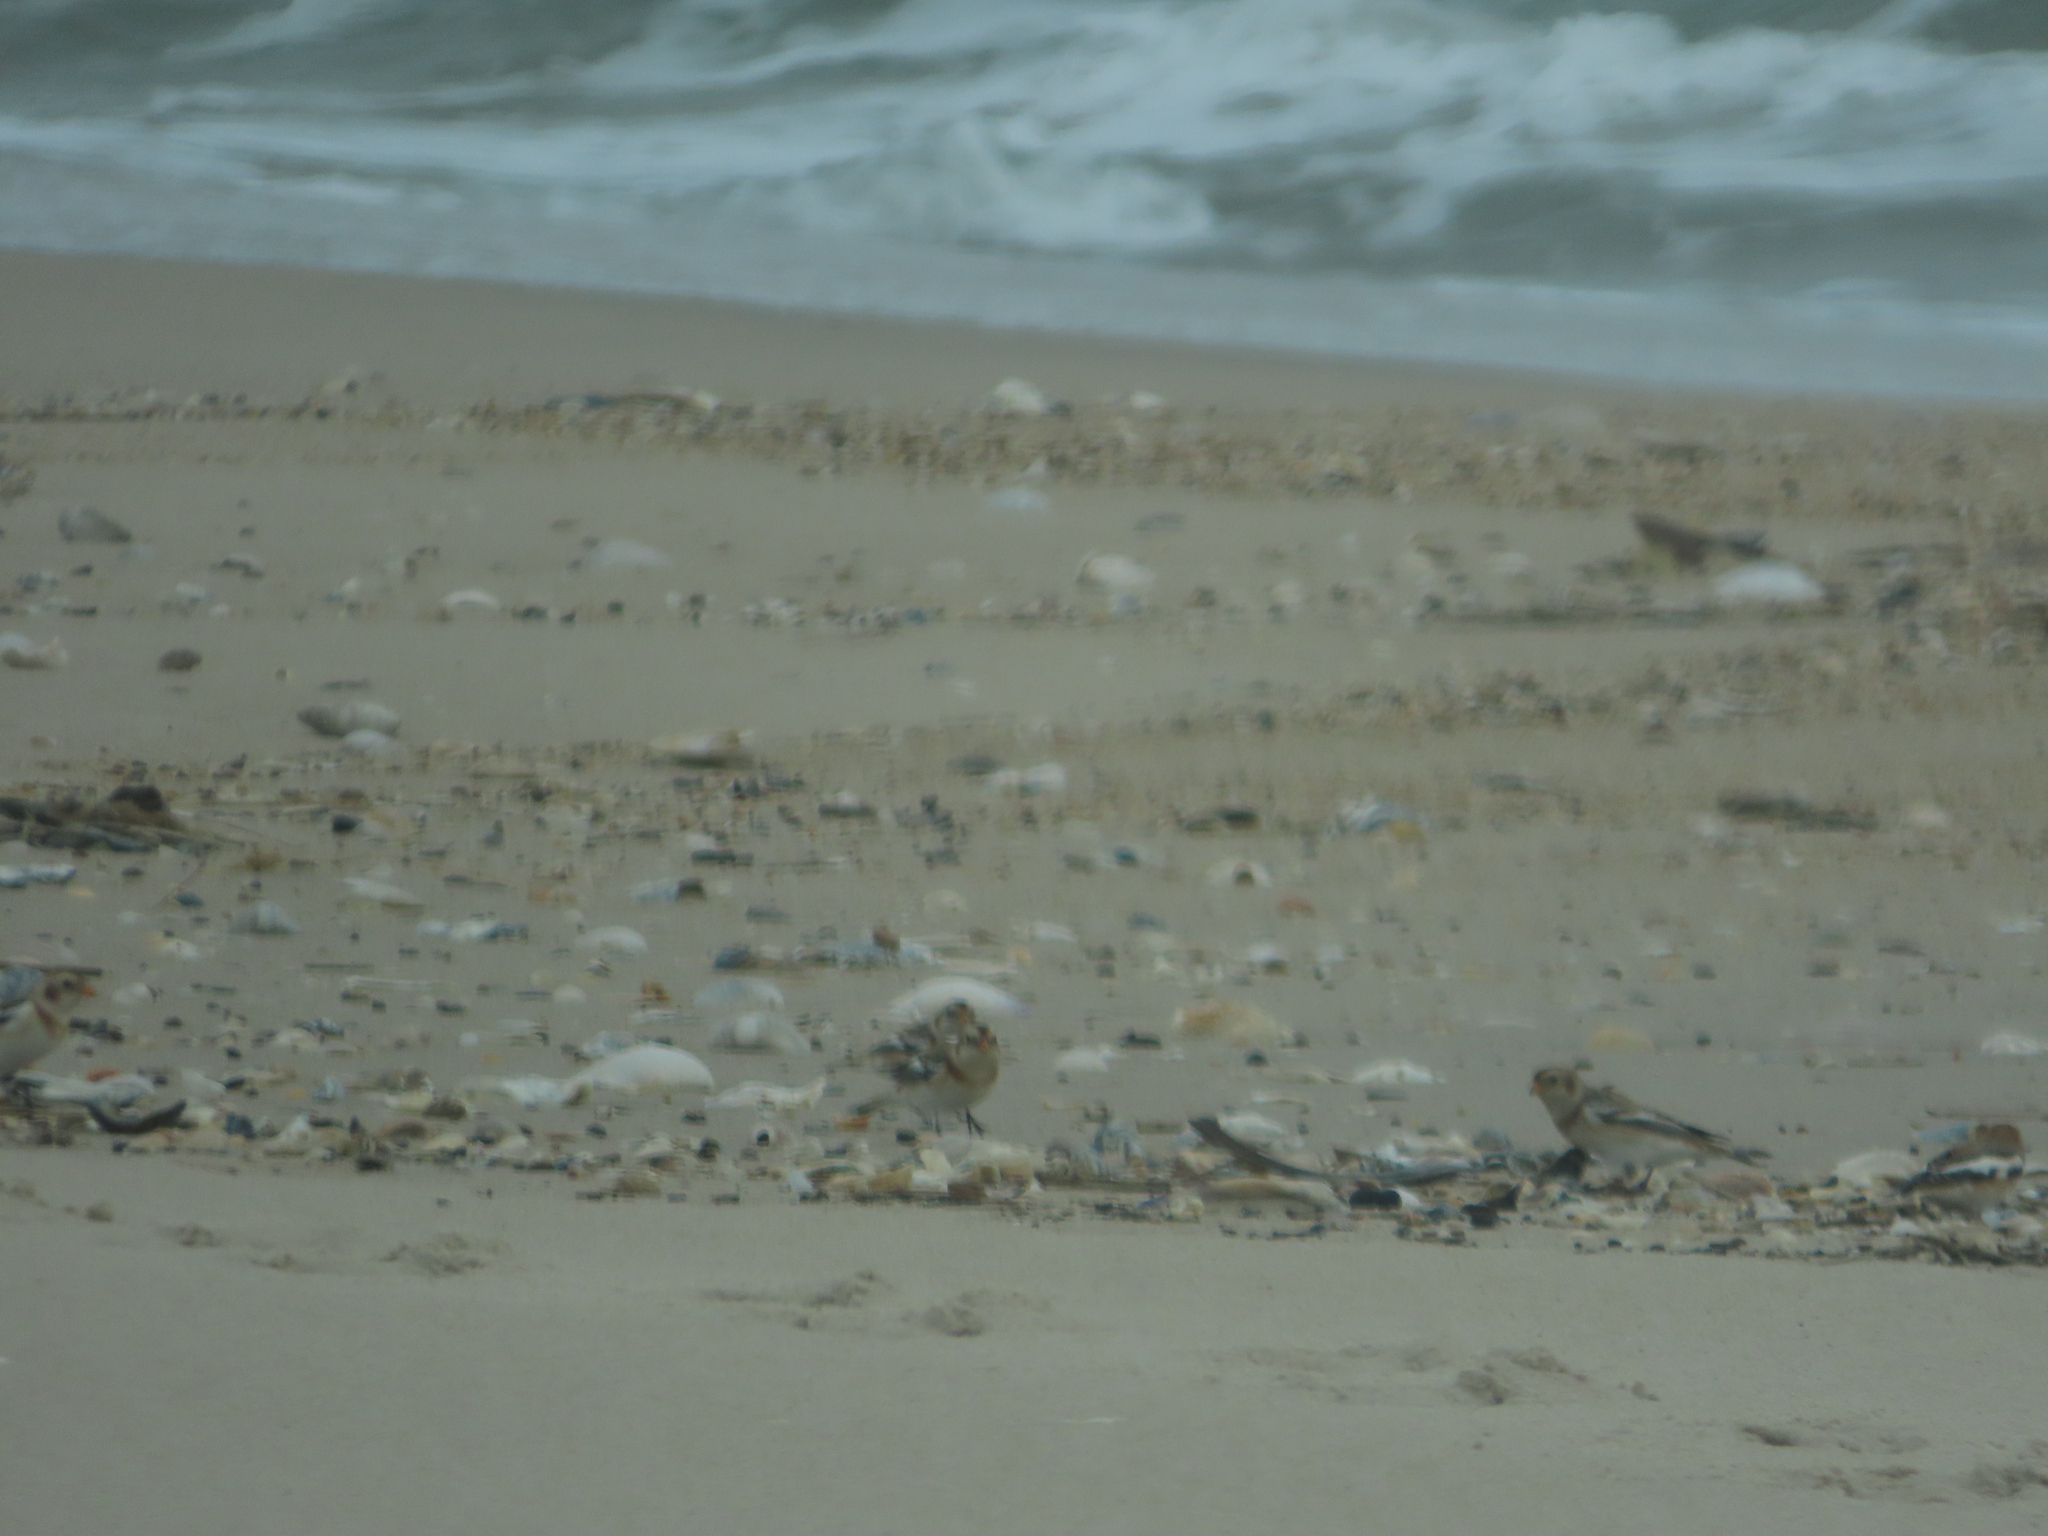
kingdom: Animalia
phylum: Chordata
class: Aves
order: Passeriformes
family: Calcariidae
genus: Plectrophenax
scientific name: Plectrophenax nivalis
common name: Snow bunting
